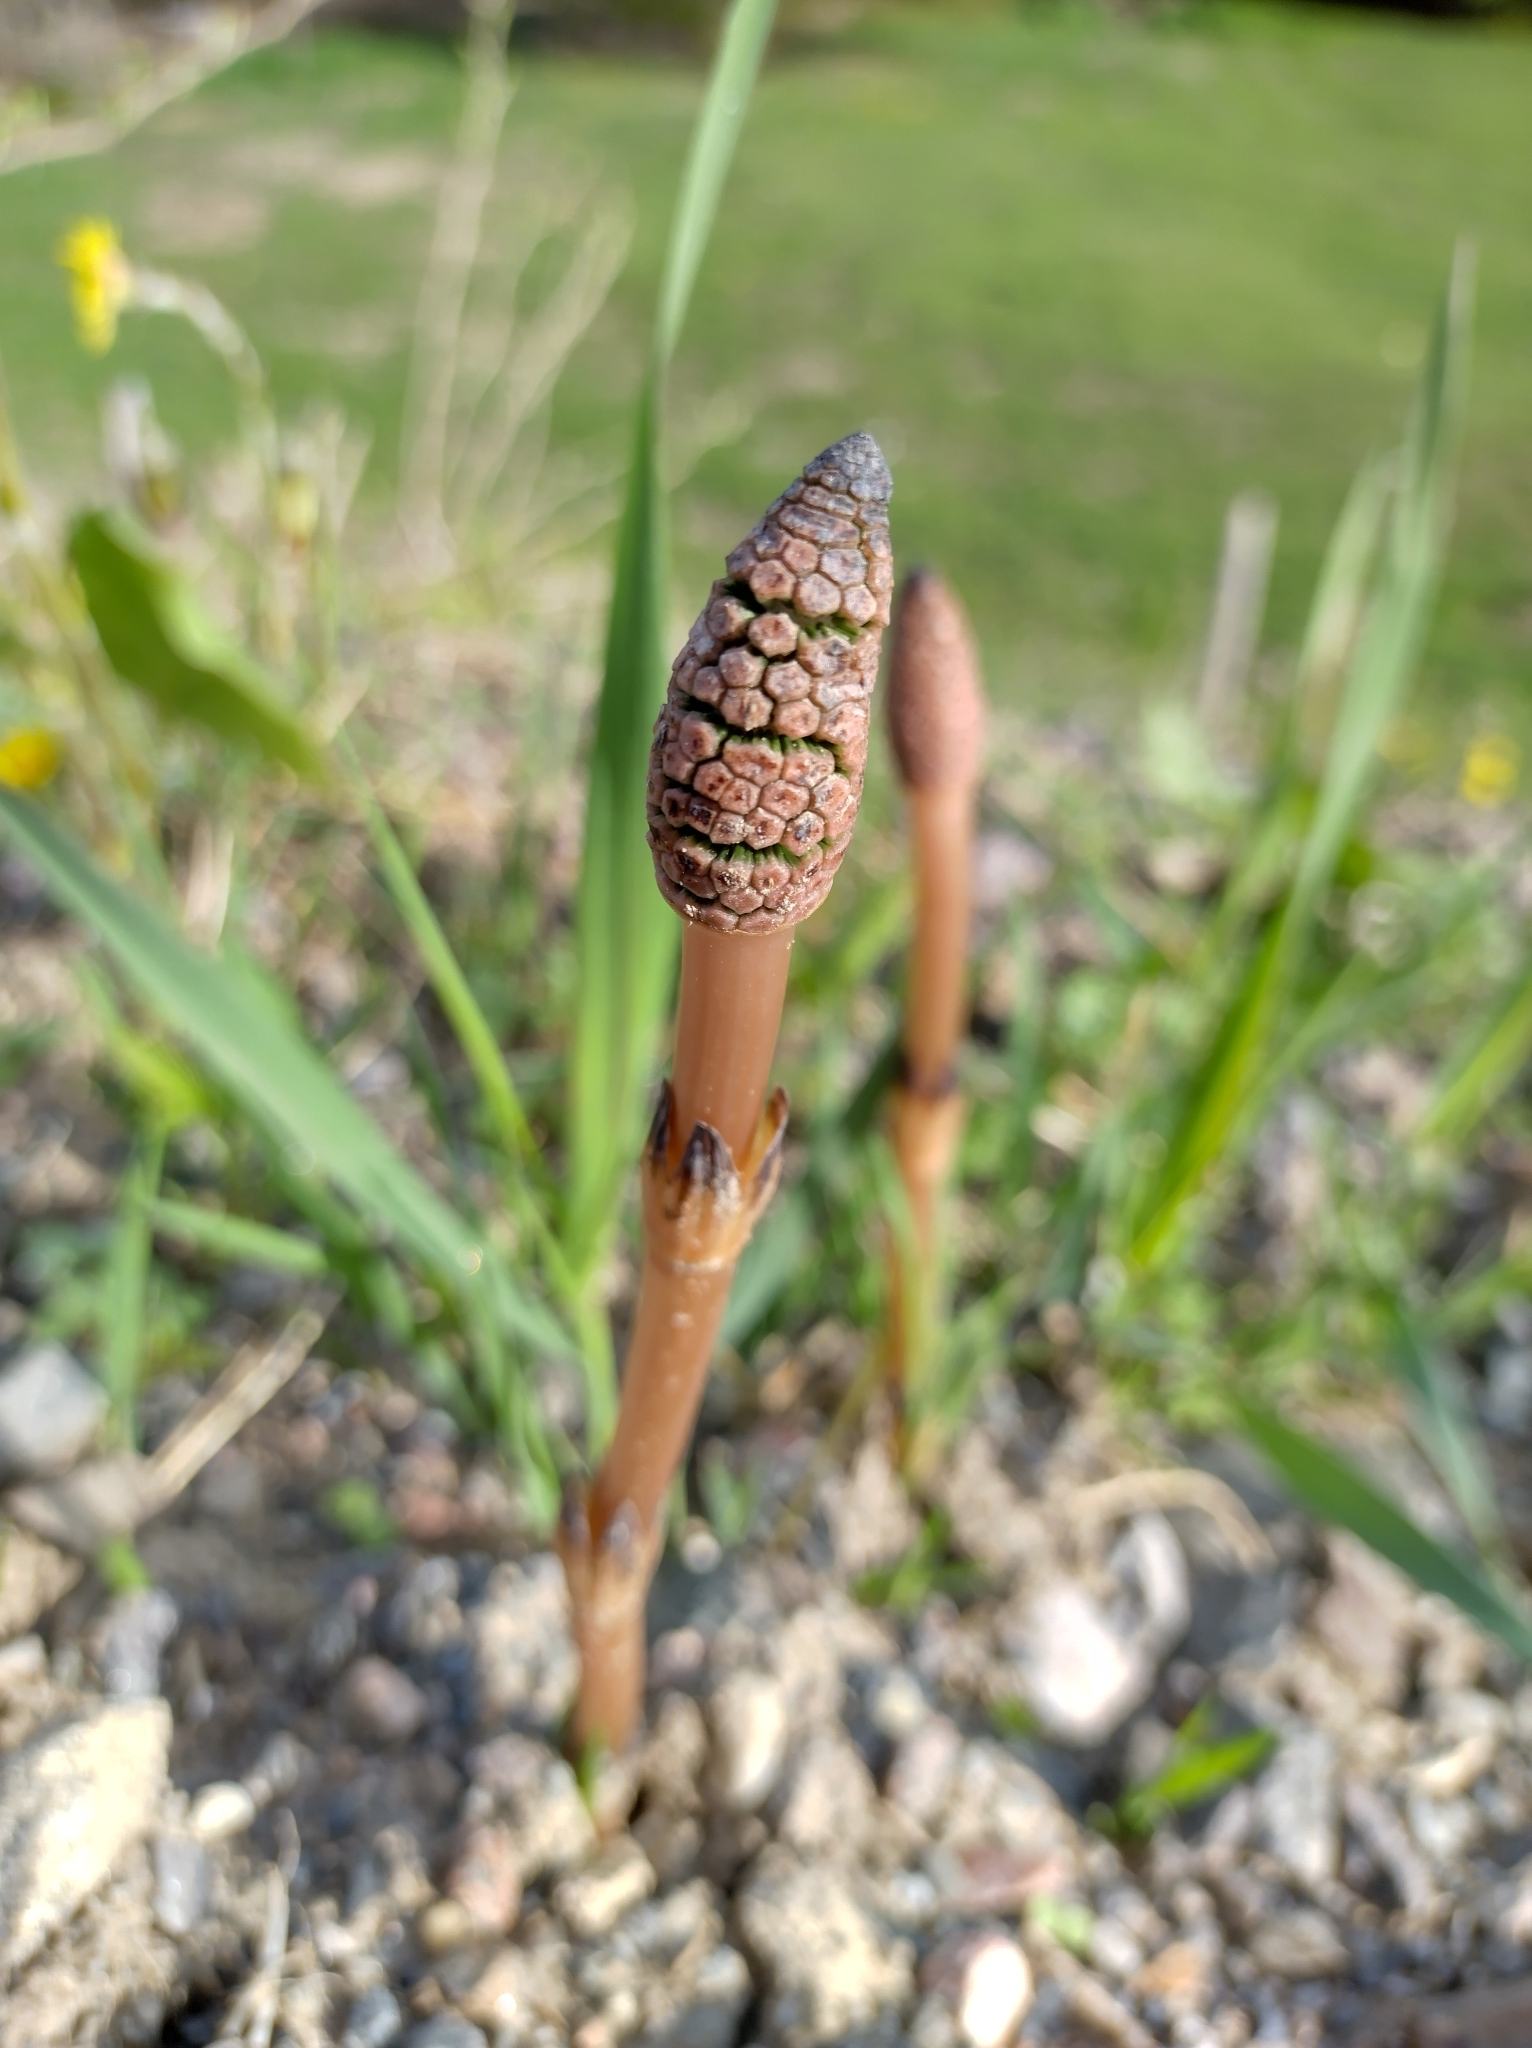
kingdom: Plantae
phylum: Tracheophyta
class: Polypodiopsida
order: Equisetales
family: Equisetaceae
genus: Equisetum
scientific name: Equisetum arvense
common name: Field horsetail
